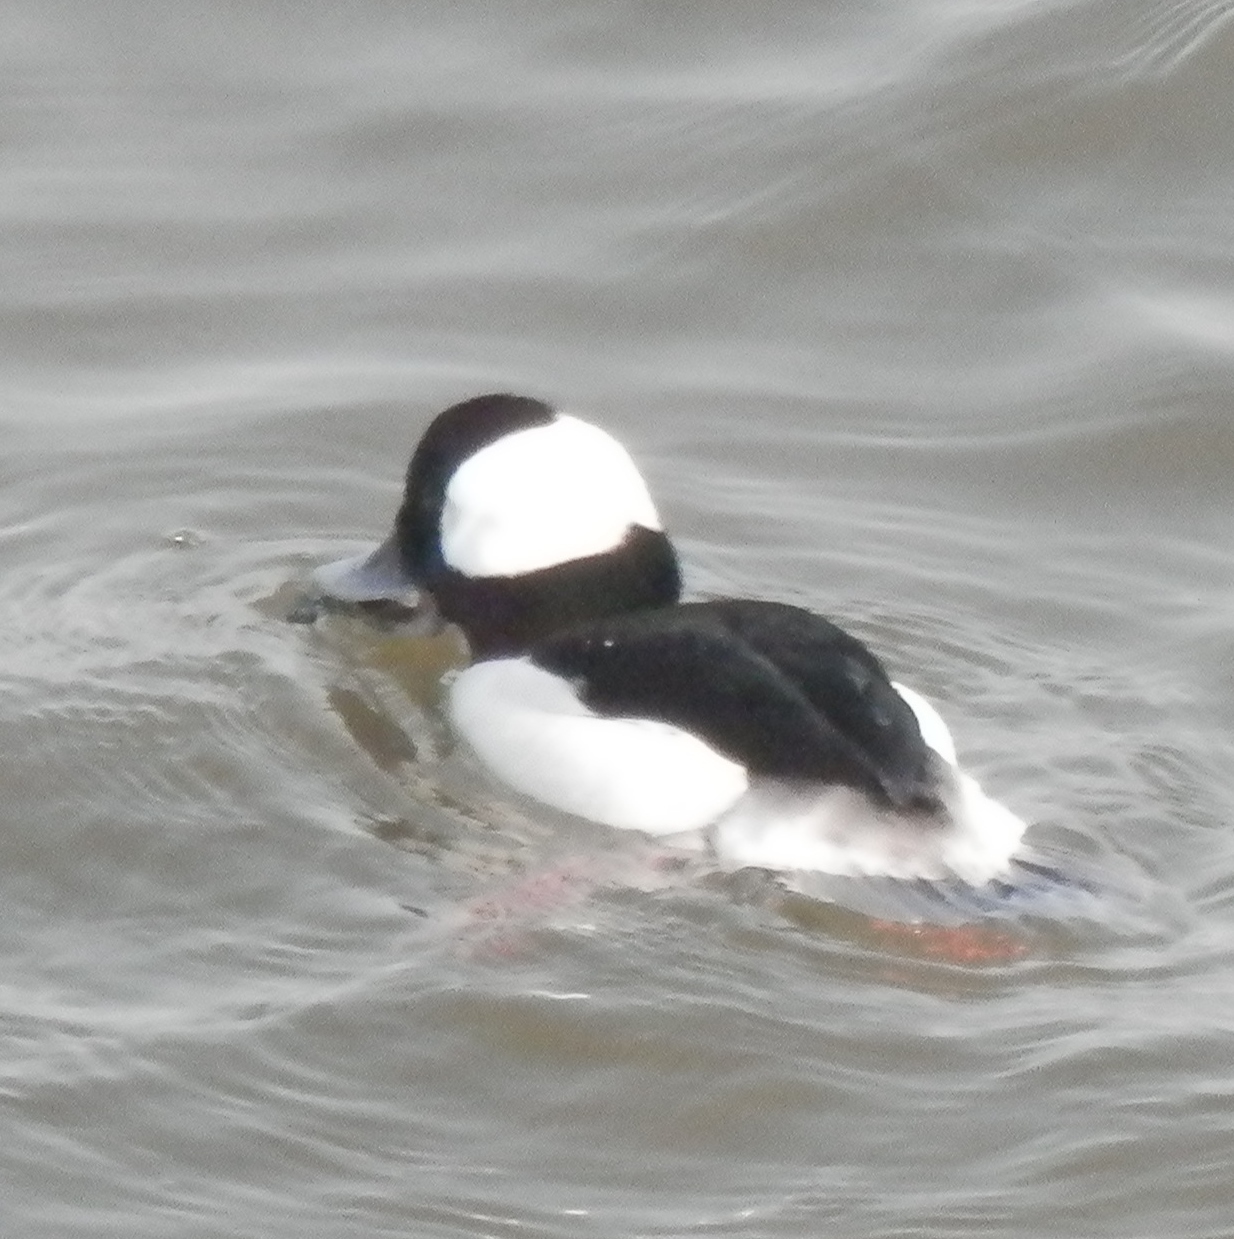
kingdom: Animalia
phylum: Chordata
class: Aves
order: Anseriformes
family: Anatidae
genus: Bucephala
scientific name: Bucephala albeola
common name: Bufflehead
